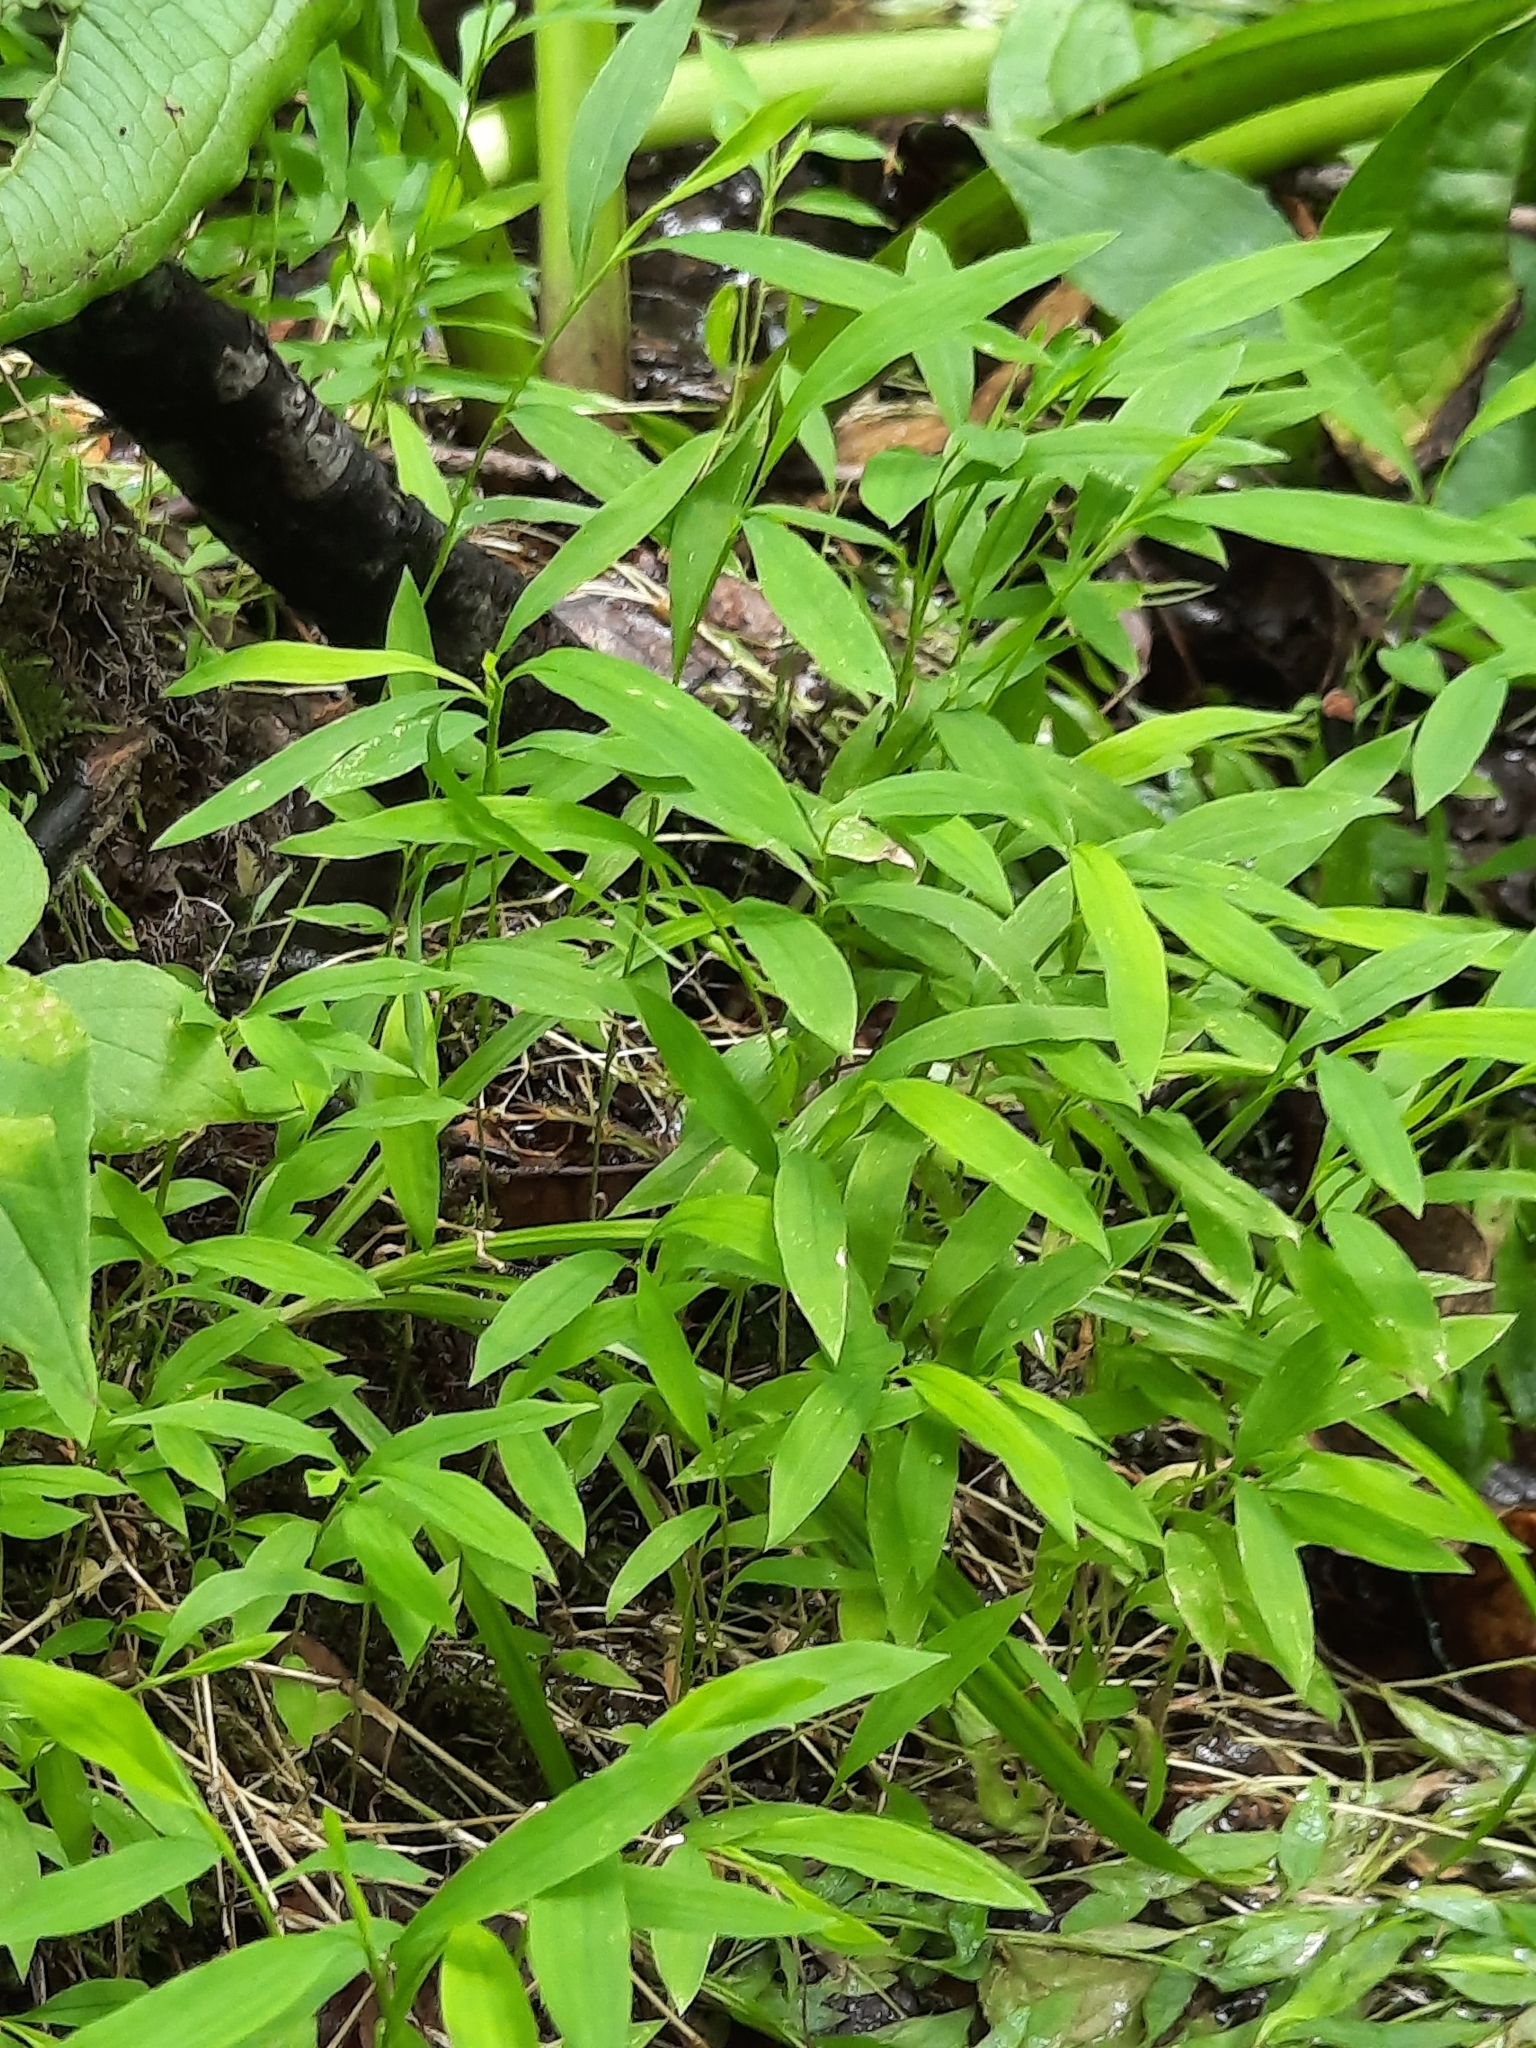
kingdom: Plantae
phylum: Tracheophyta
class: Liliopsida
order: Poales
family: Poaceae
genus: Microstegium
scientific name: Microstegium vimineum
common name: Japanese stiltgrass
